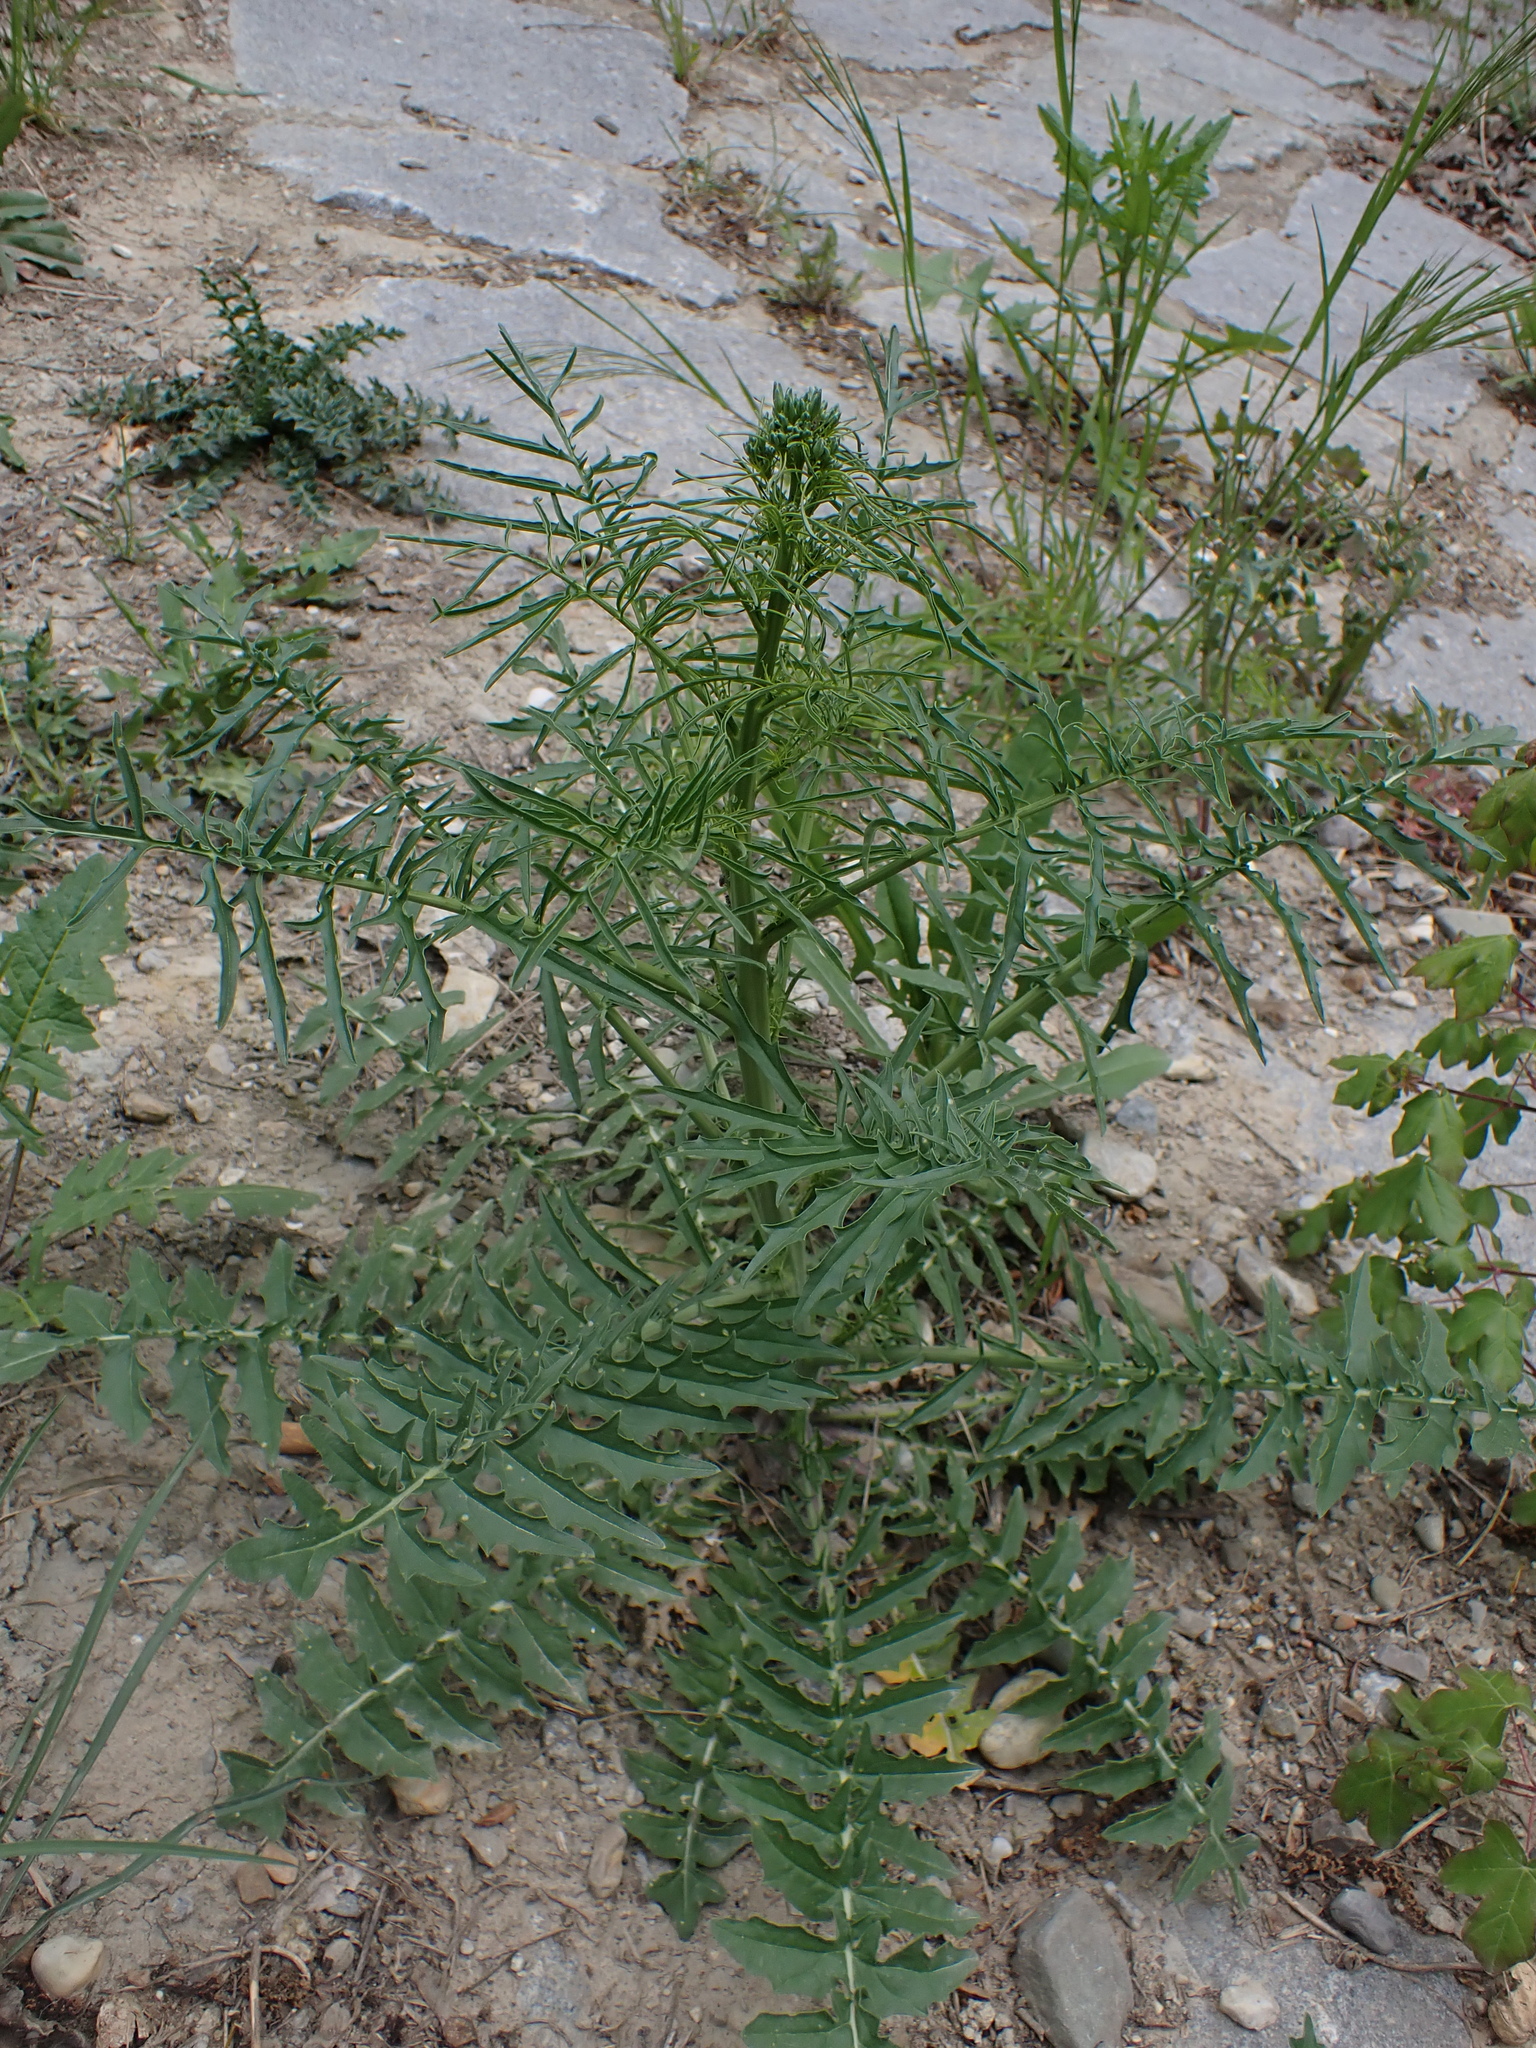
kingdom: Plantae
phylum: Tracheophyta
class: Magnoliopsida
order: Brassicales
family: Brassicaceae
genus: Sisymbrium
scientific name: Sisymbrium altissimum
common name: Tall rocket
